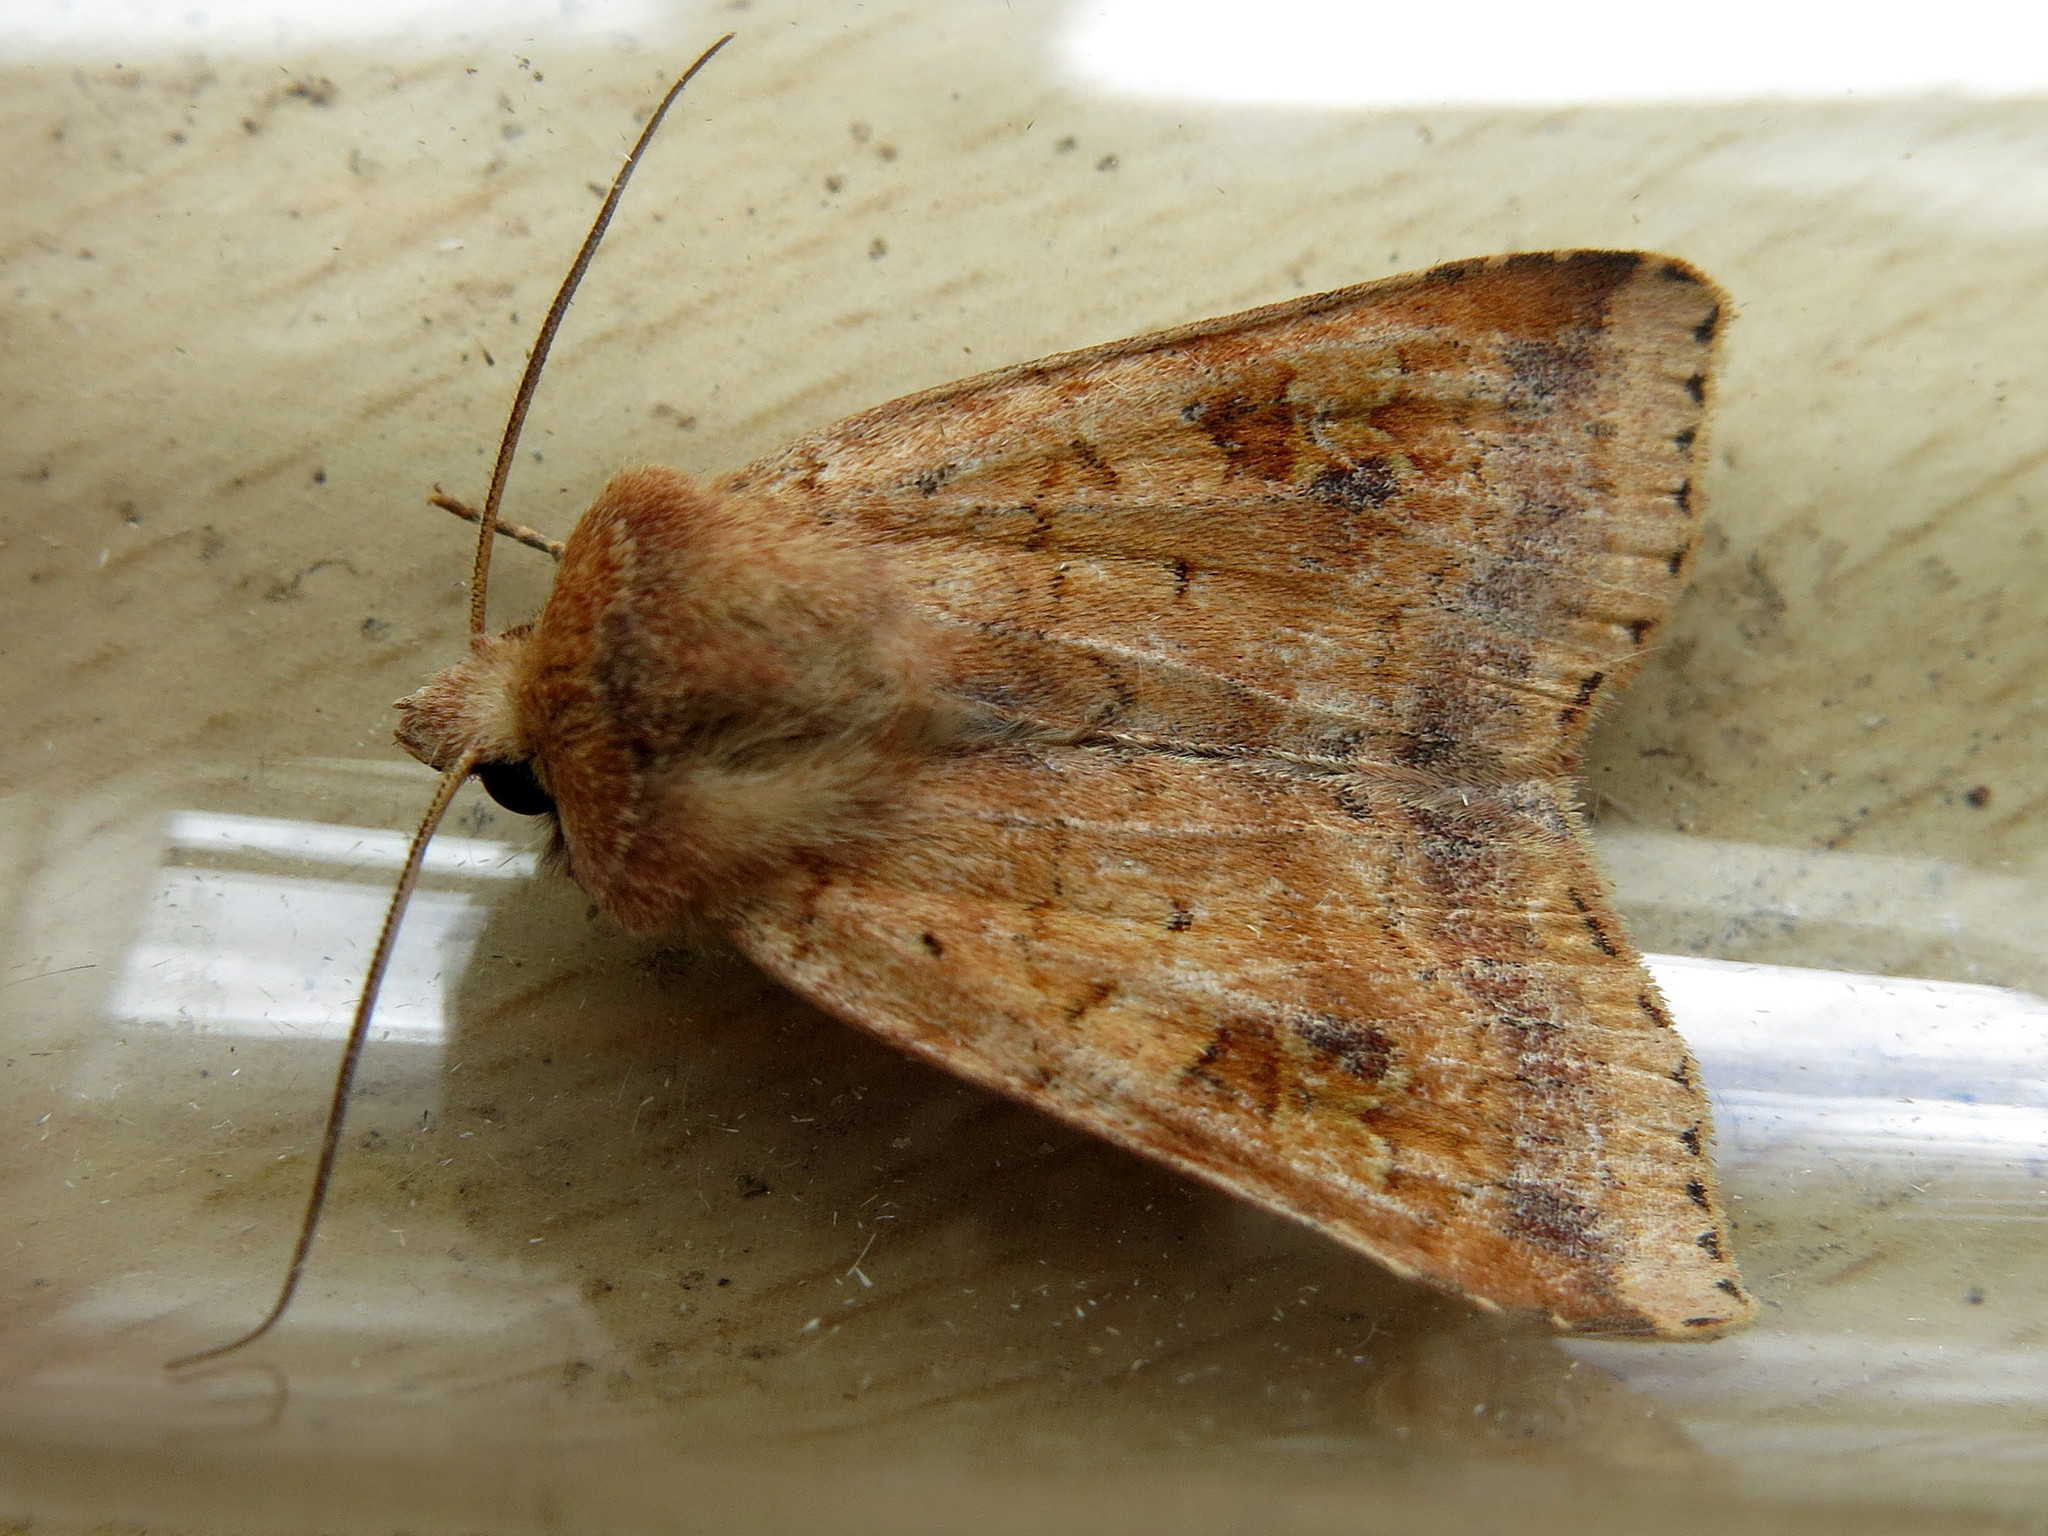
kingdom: Animalia
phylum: Arthropoda
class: Insecta
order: Lepidoptera
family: Noctuidae
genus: Diarsia
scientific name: Diarsia mendica
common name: Ingrailed clay
